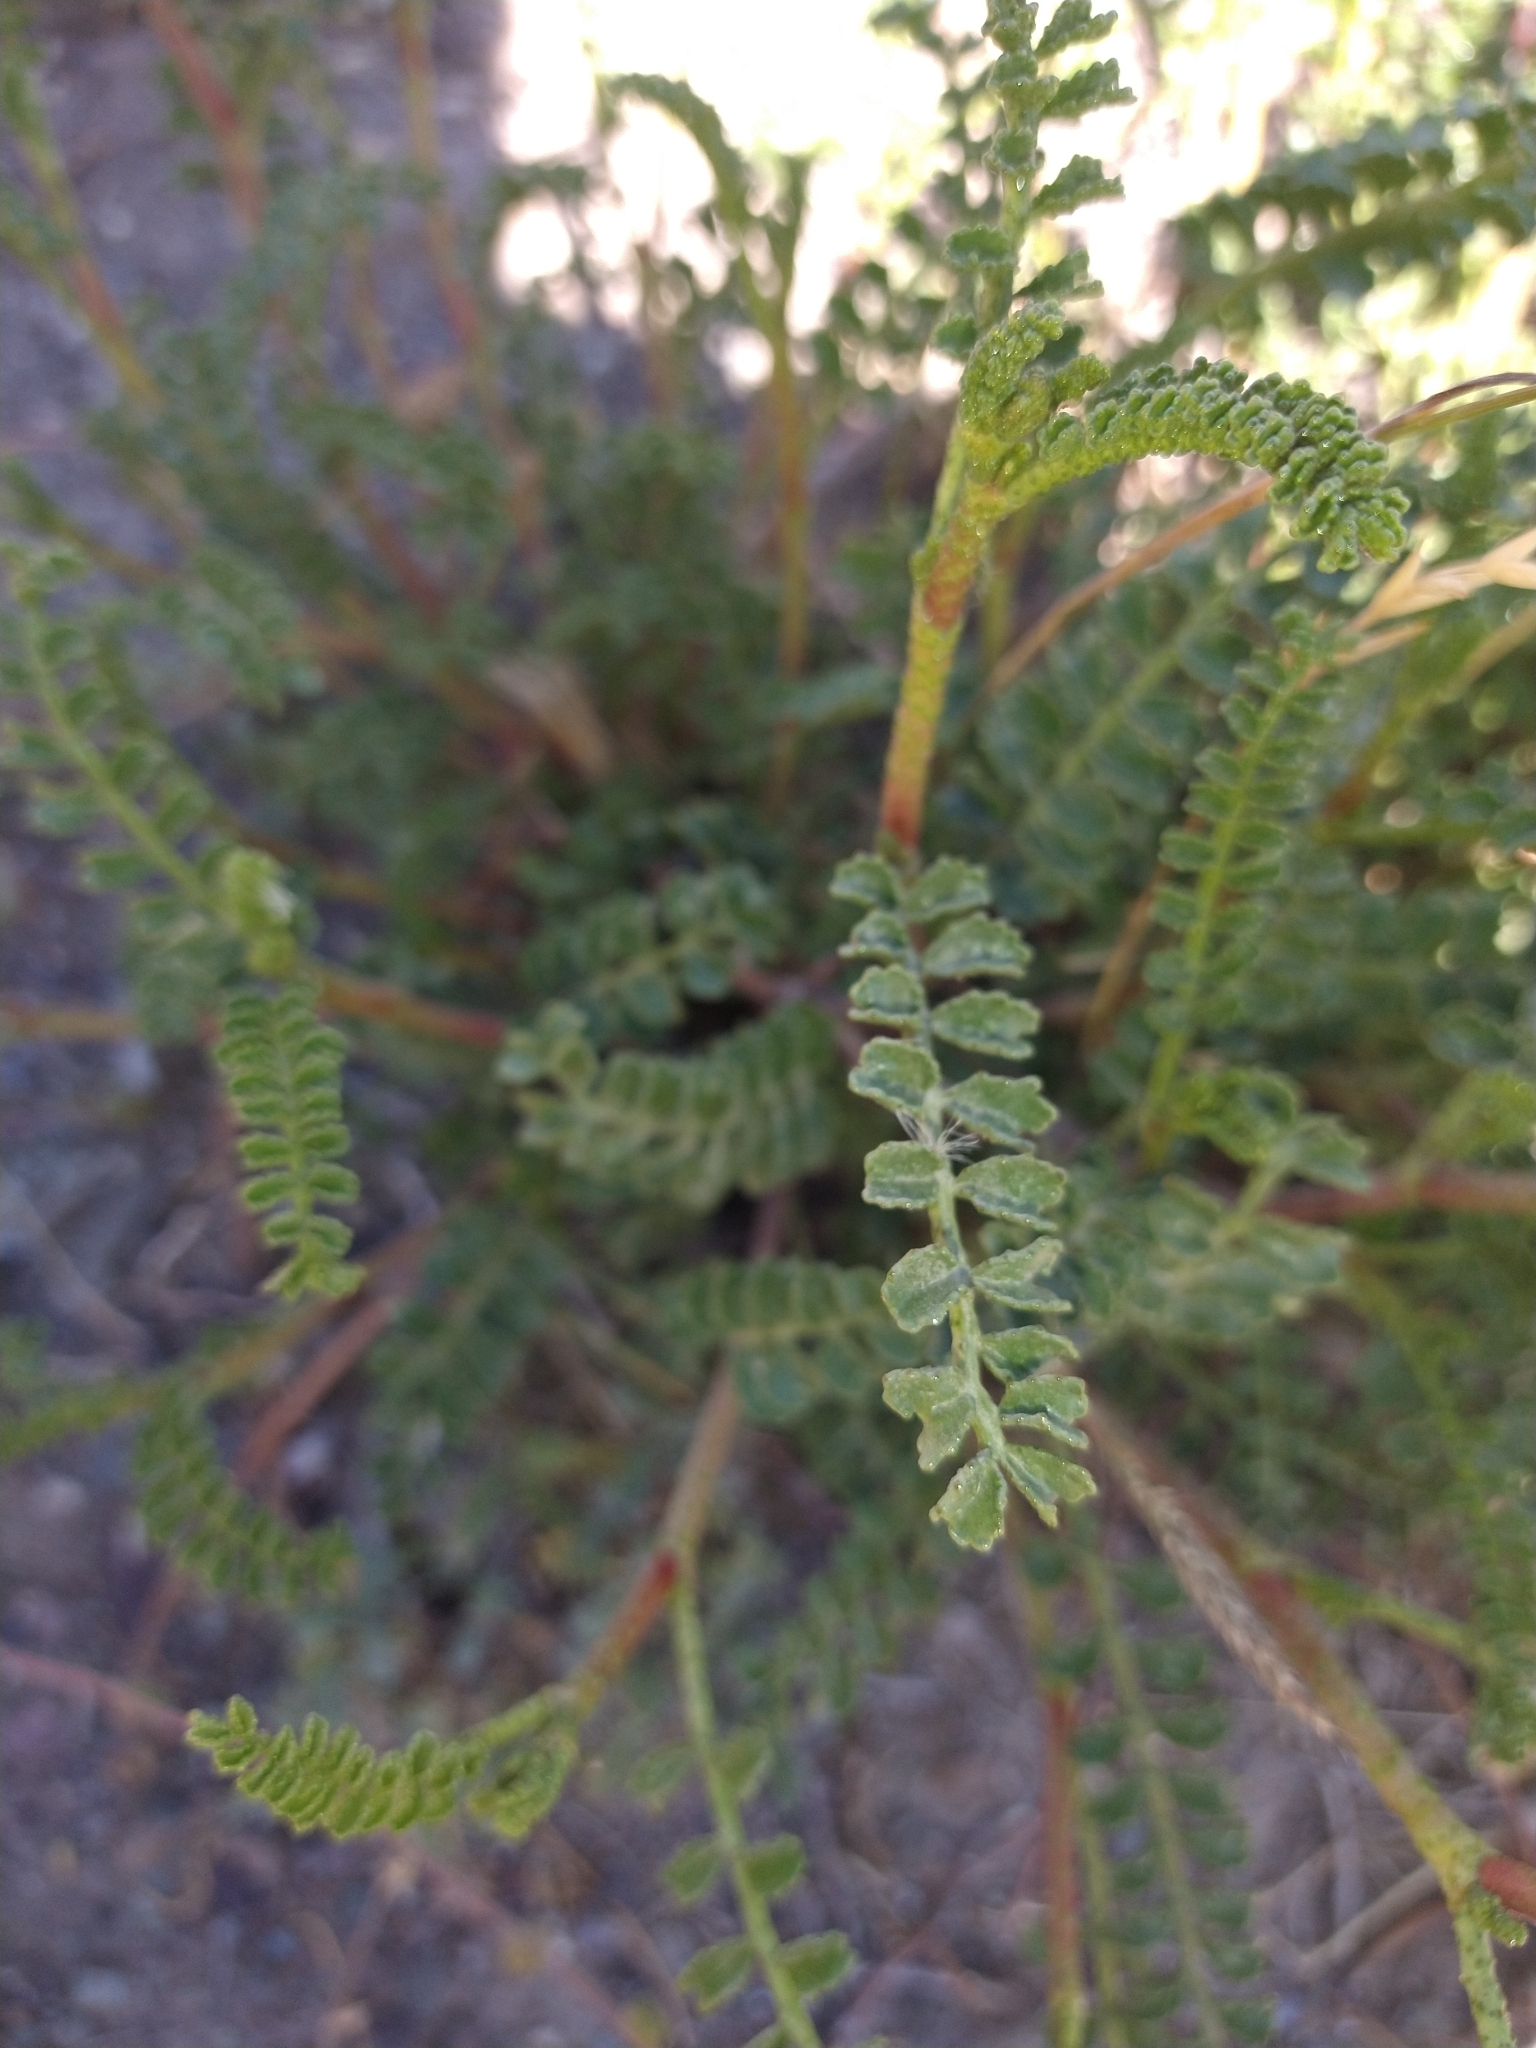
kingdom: Plantae
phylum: Tracheophyta
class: Magnoliopsida
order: Fabales
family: Fabaceae
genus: Adesmia
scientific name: Adesmia boronioides
